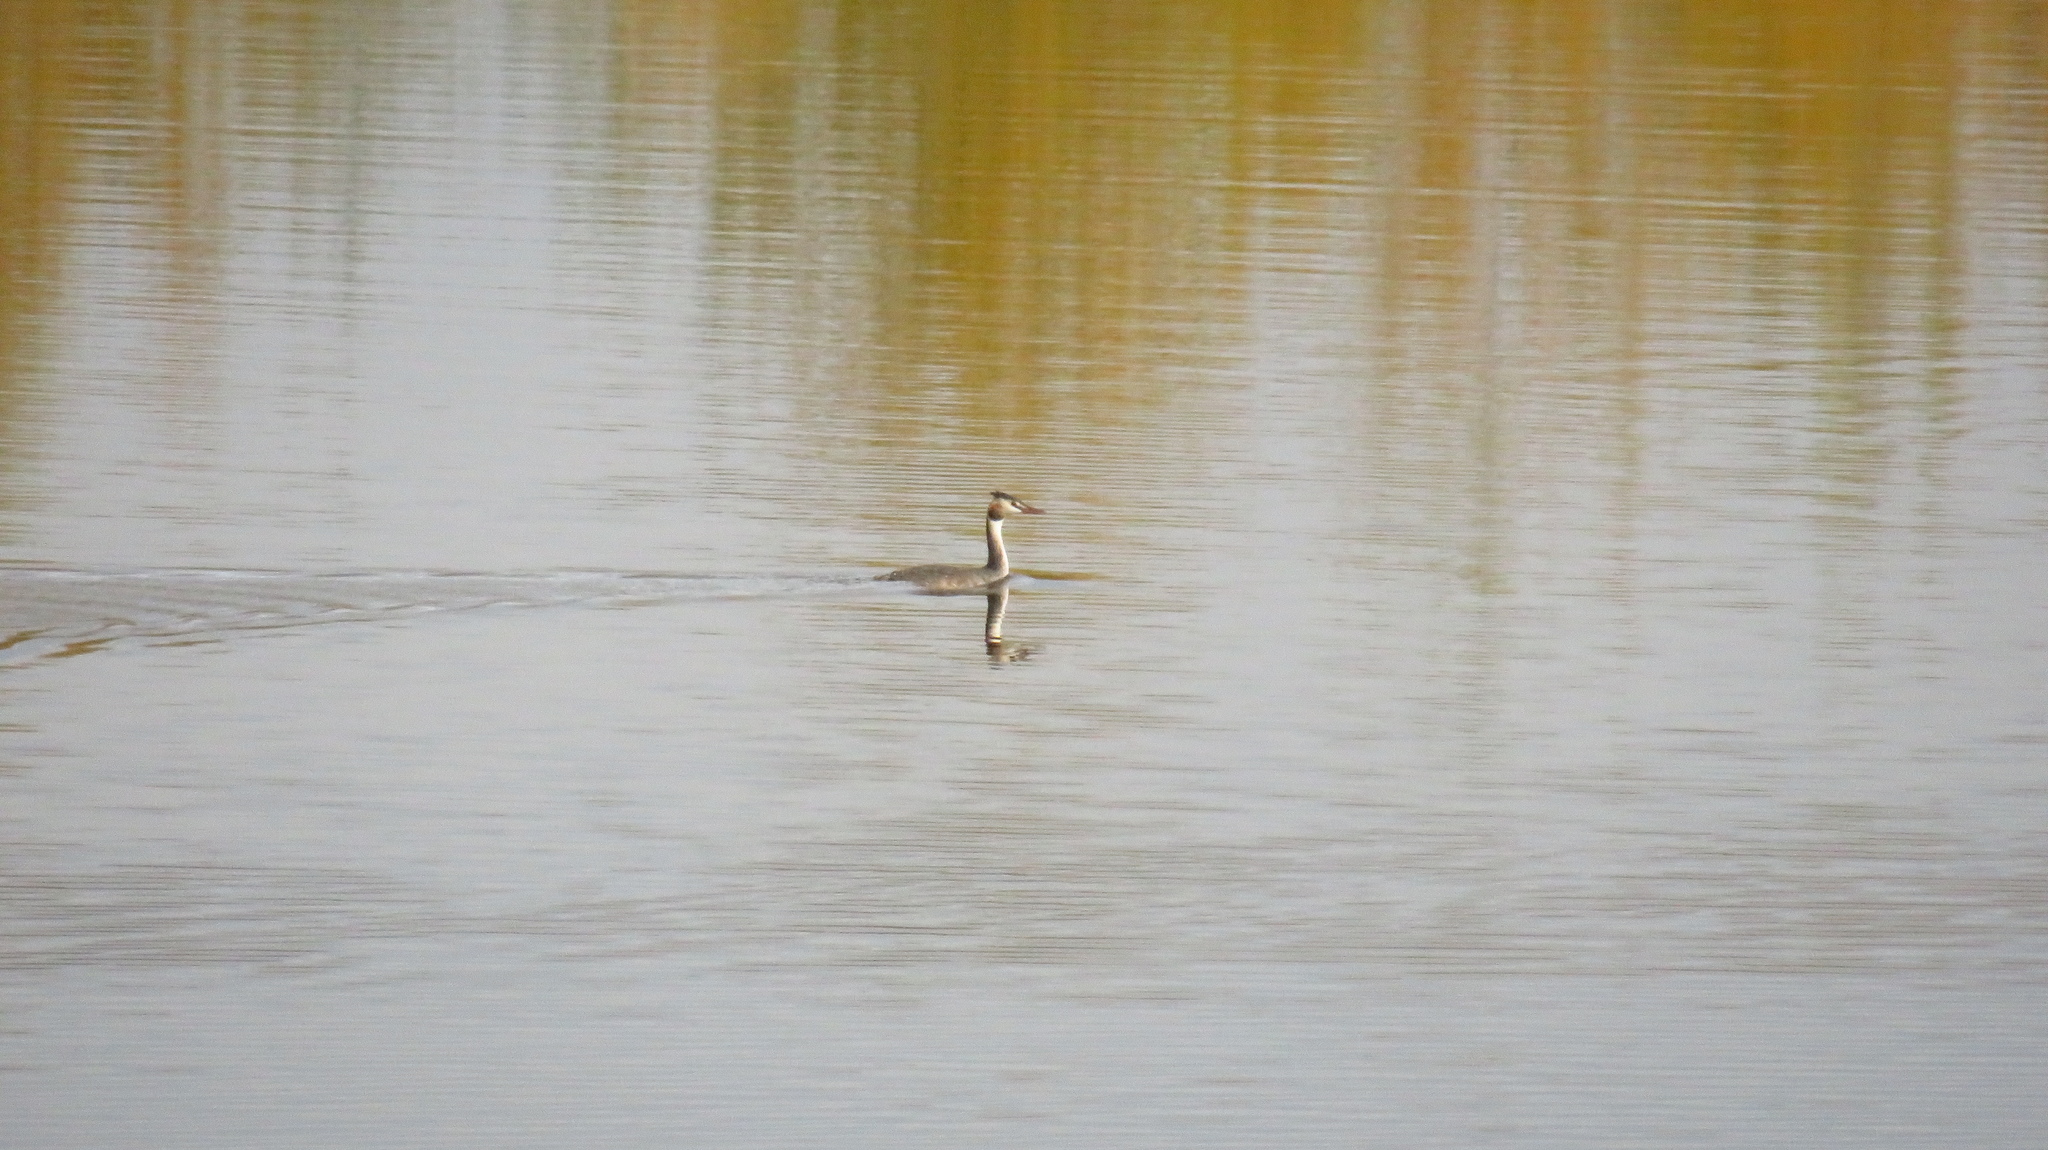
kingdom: Animalia
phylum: Chordata
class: Aves
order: Podicipediformes
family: Podicipedidae
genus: Podiceps
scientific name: Podiceps cristatus
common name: Great crested grebe
